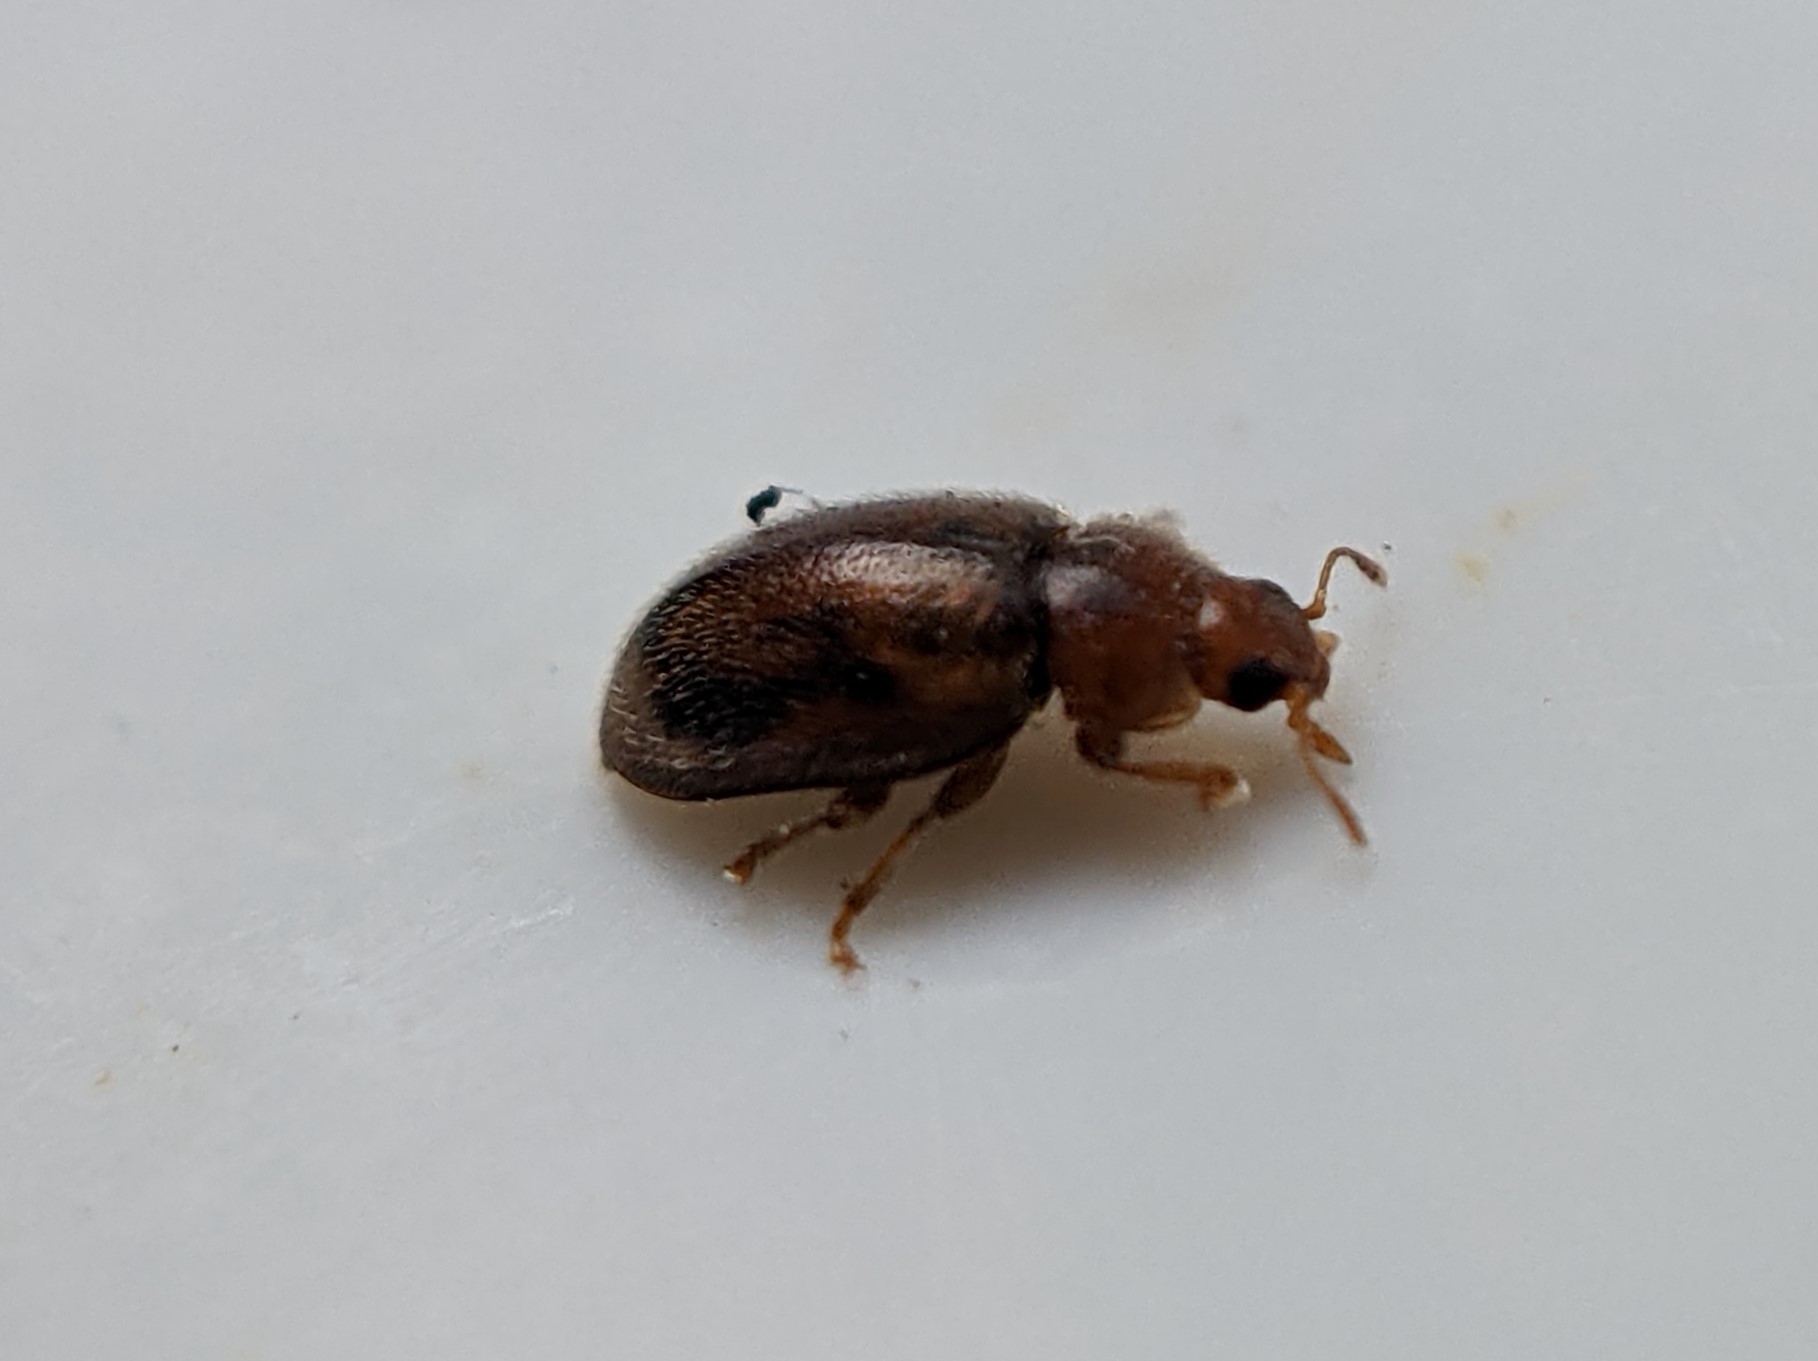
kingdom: Animalia
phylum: Arthropoda
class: Insecta
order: Coleoptera
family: Coccinellidae
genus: Rhyzobius
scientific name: Rhyzobius chrysomeloides
